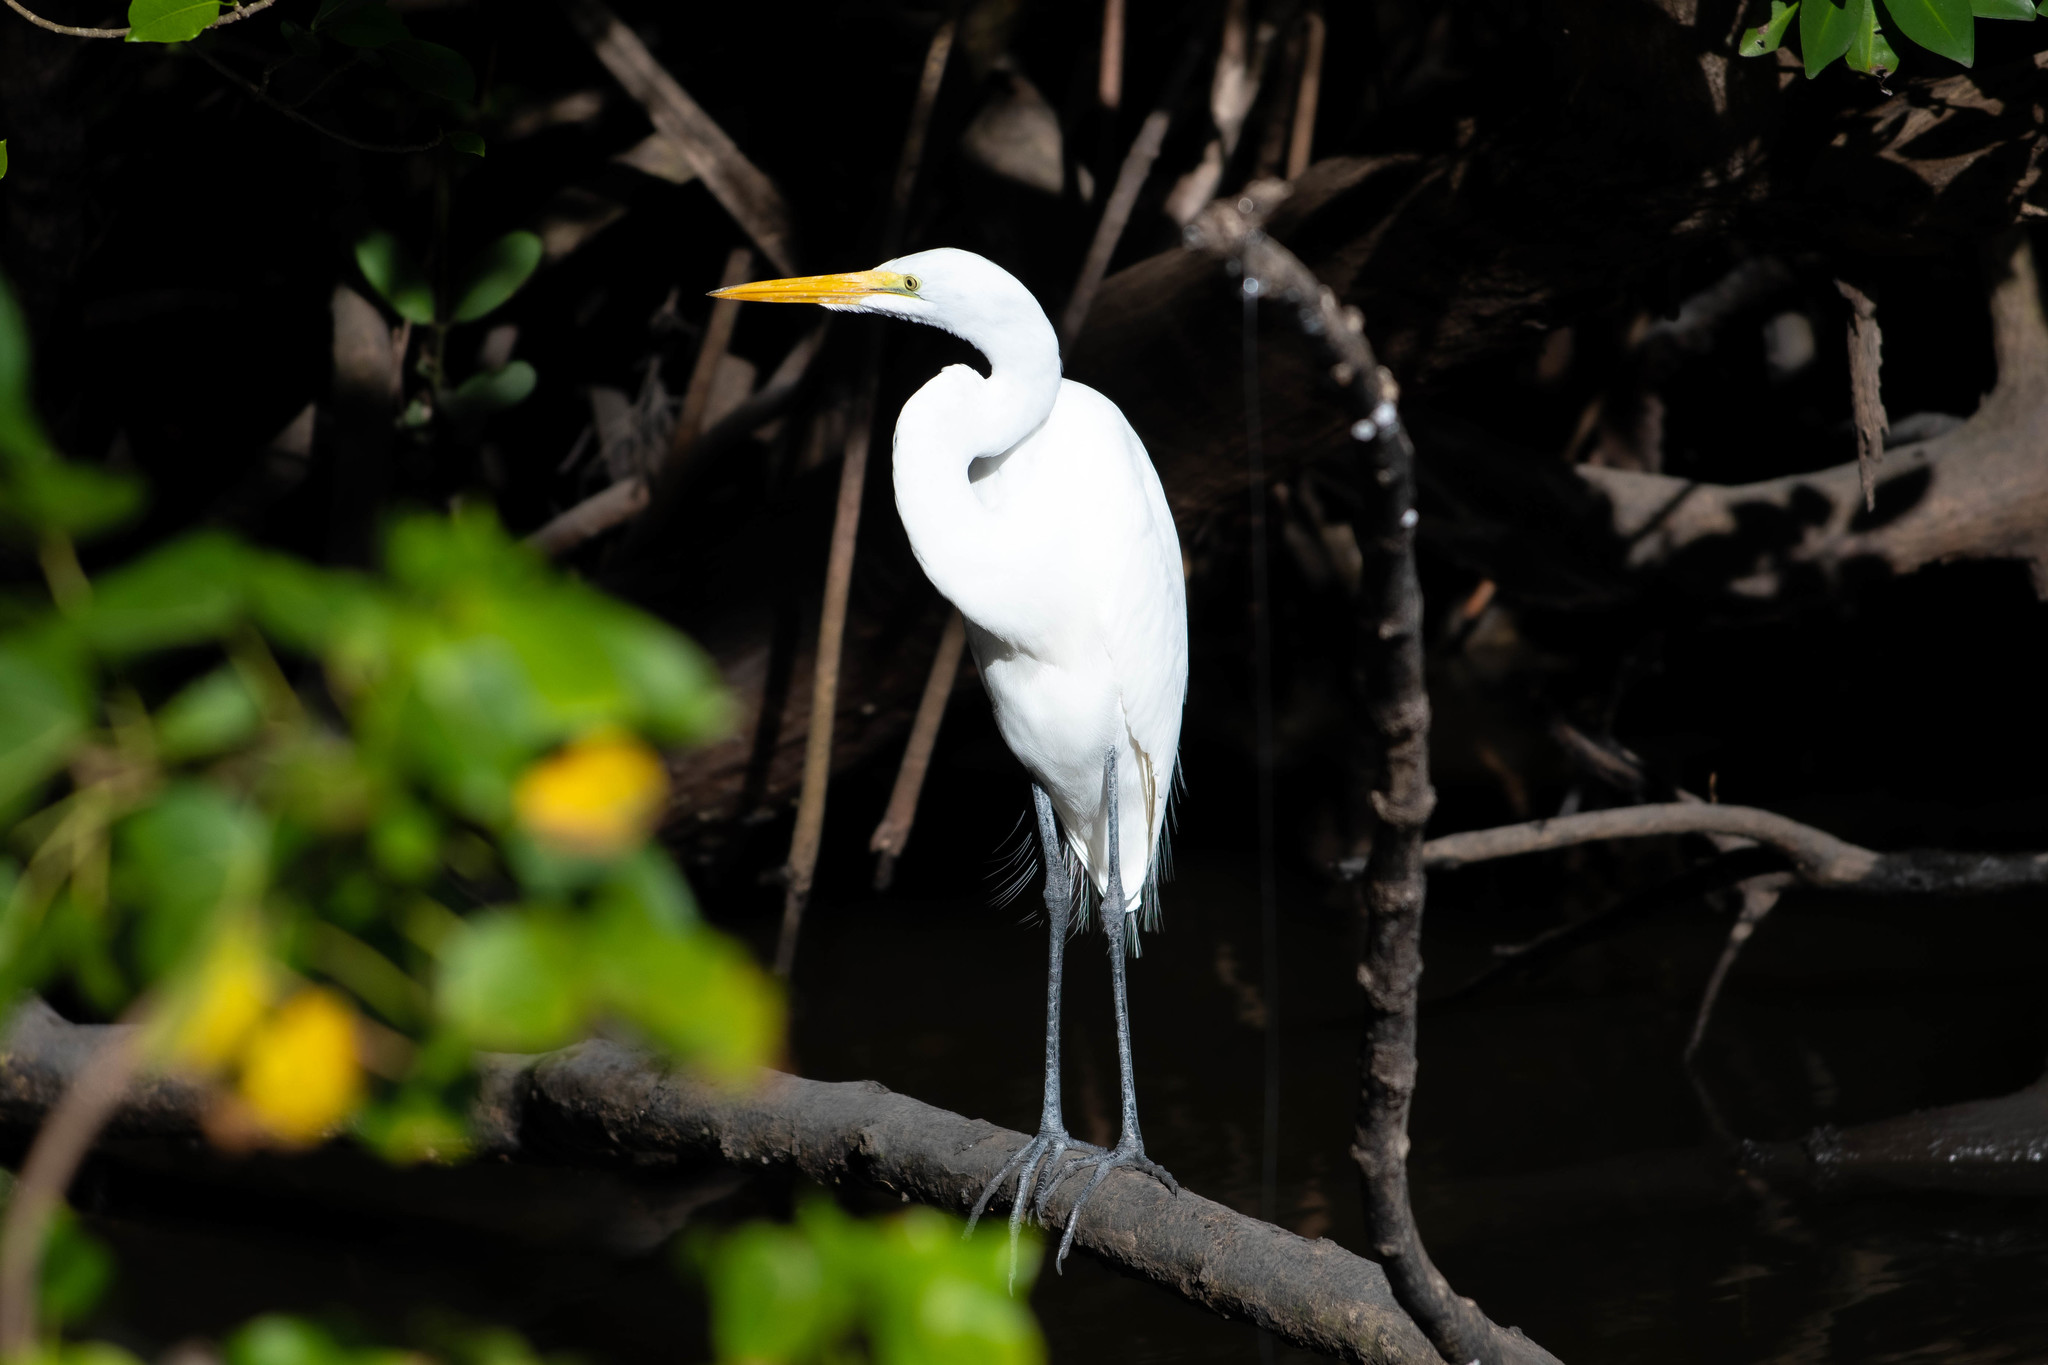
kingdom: Animalia
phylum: Chordata
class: Aves
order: Pelecaniformes
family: Ardeidae
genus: Ardea
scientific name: Ardea alba
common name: Great egret
